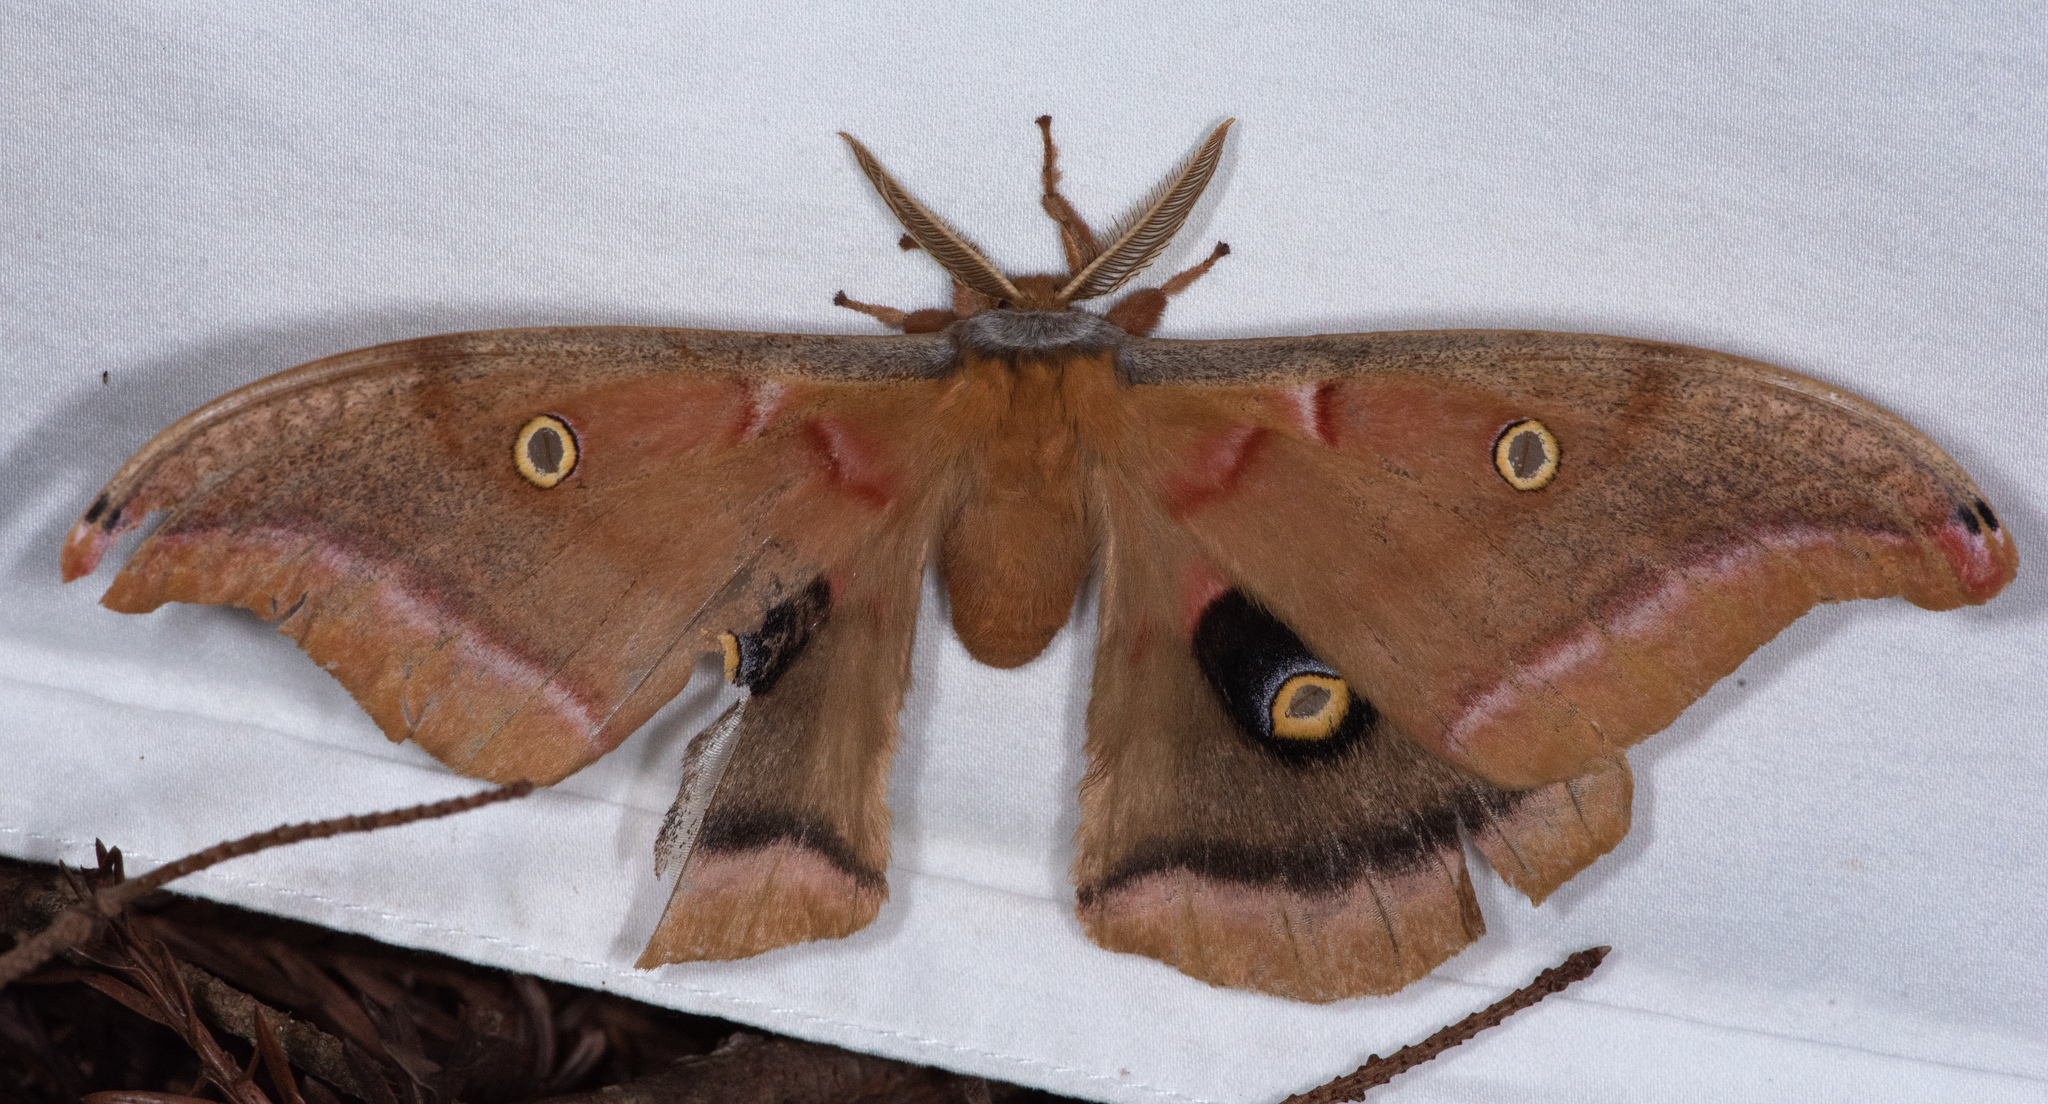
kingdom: Animalia
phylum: Arthropoda
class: Insecta
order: Lepidoptera
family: Saturniidae
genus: Antheraea
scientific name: Antheraea polyphemus
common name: Polyphemus moth
